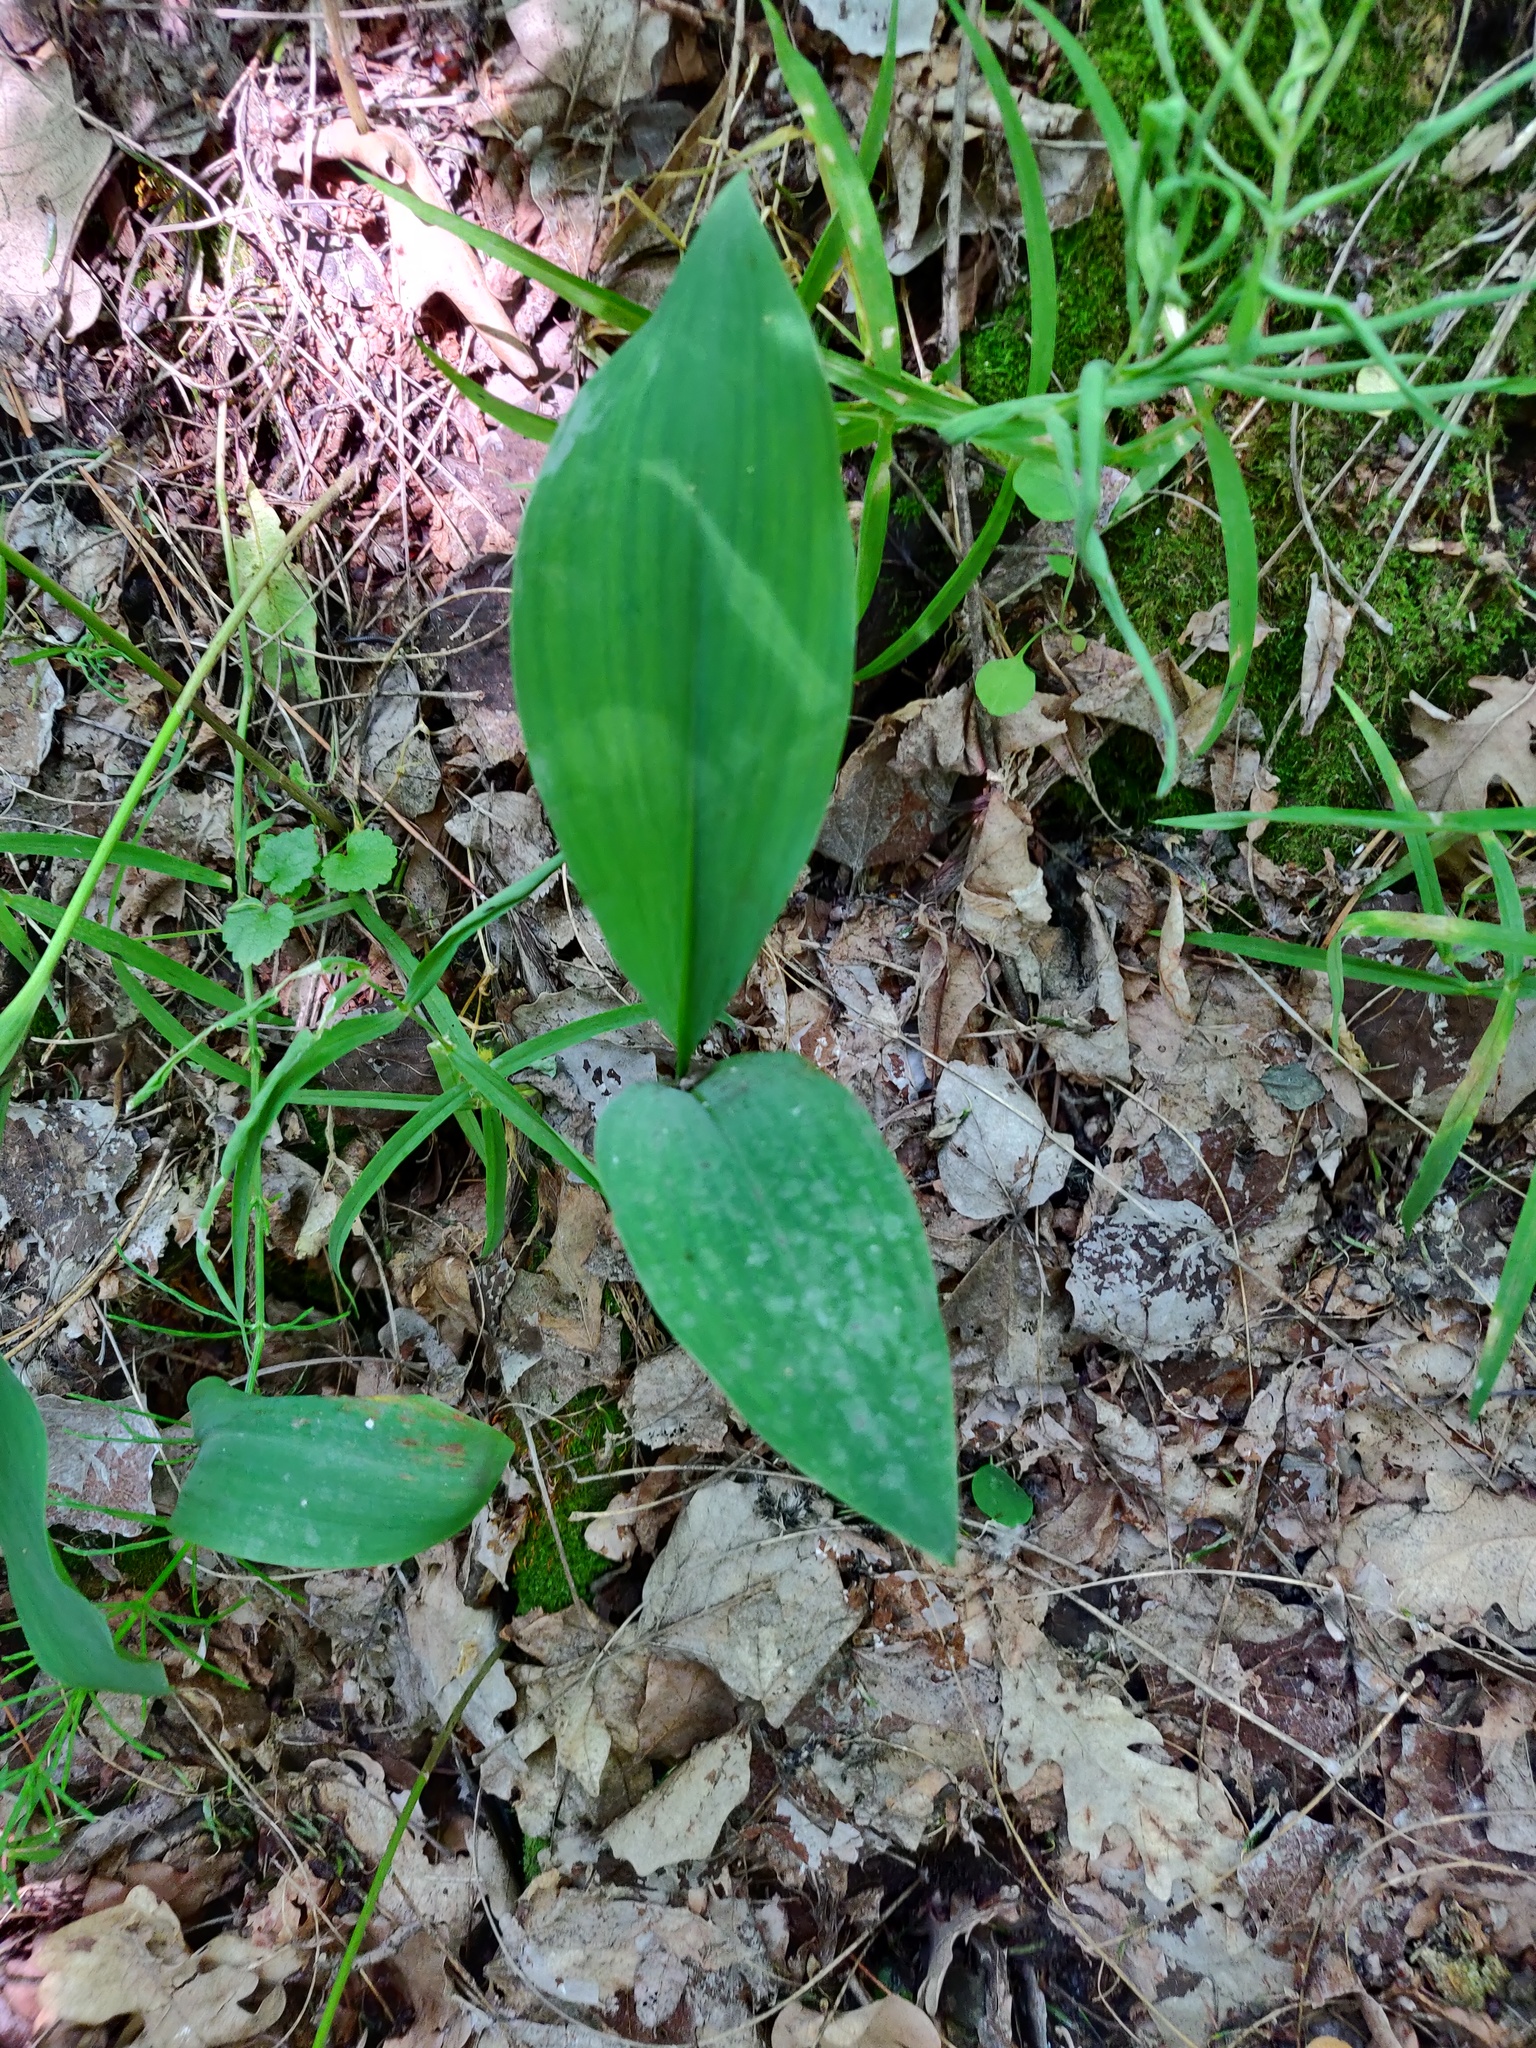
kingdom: Plantae
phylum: Tracheophyta
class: Liliopsida
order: Asparagales
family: Asparagaceae
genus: Convallaria
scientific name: Convallaria majalis
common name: Lily-of-the-valley
